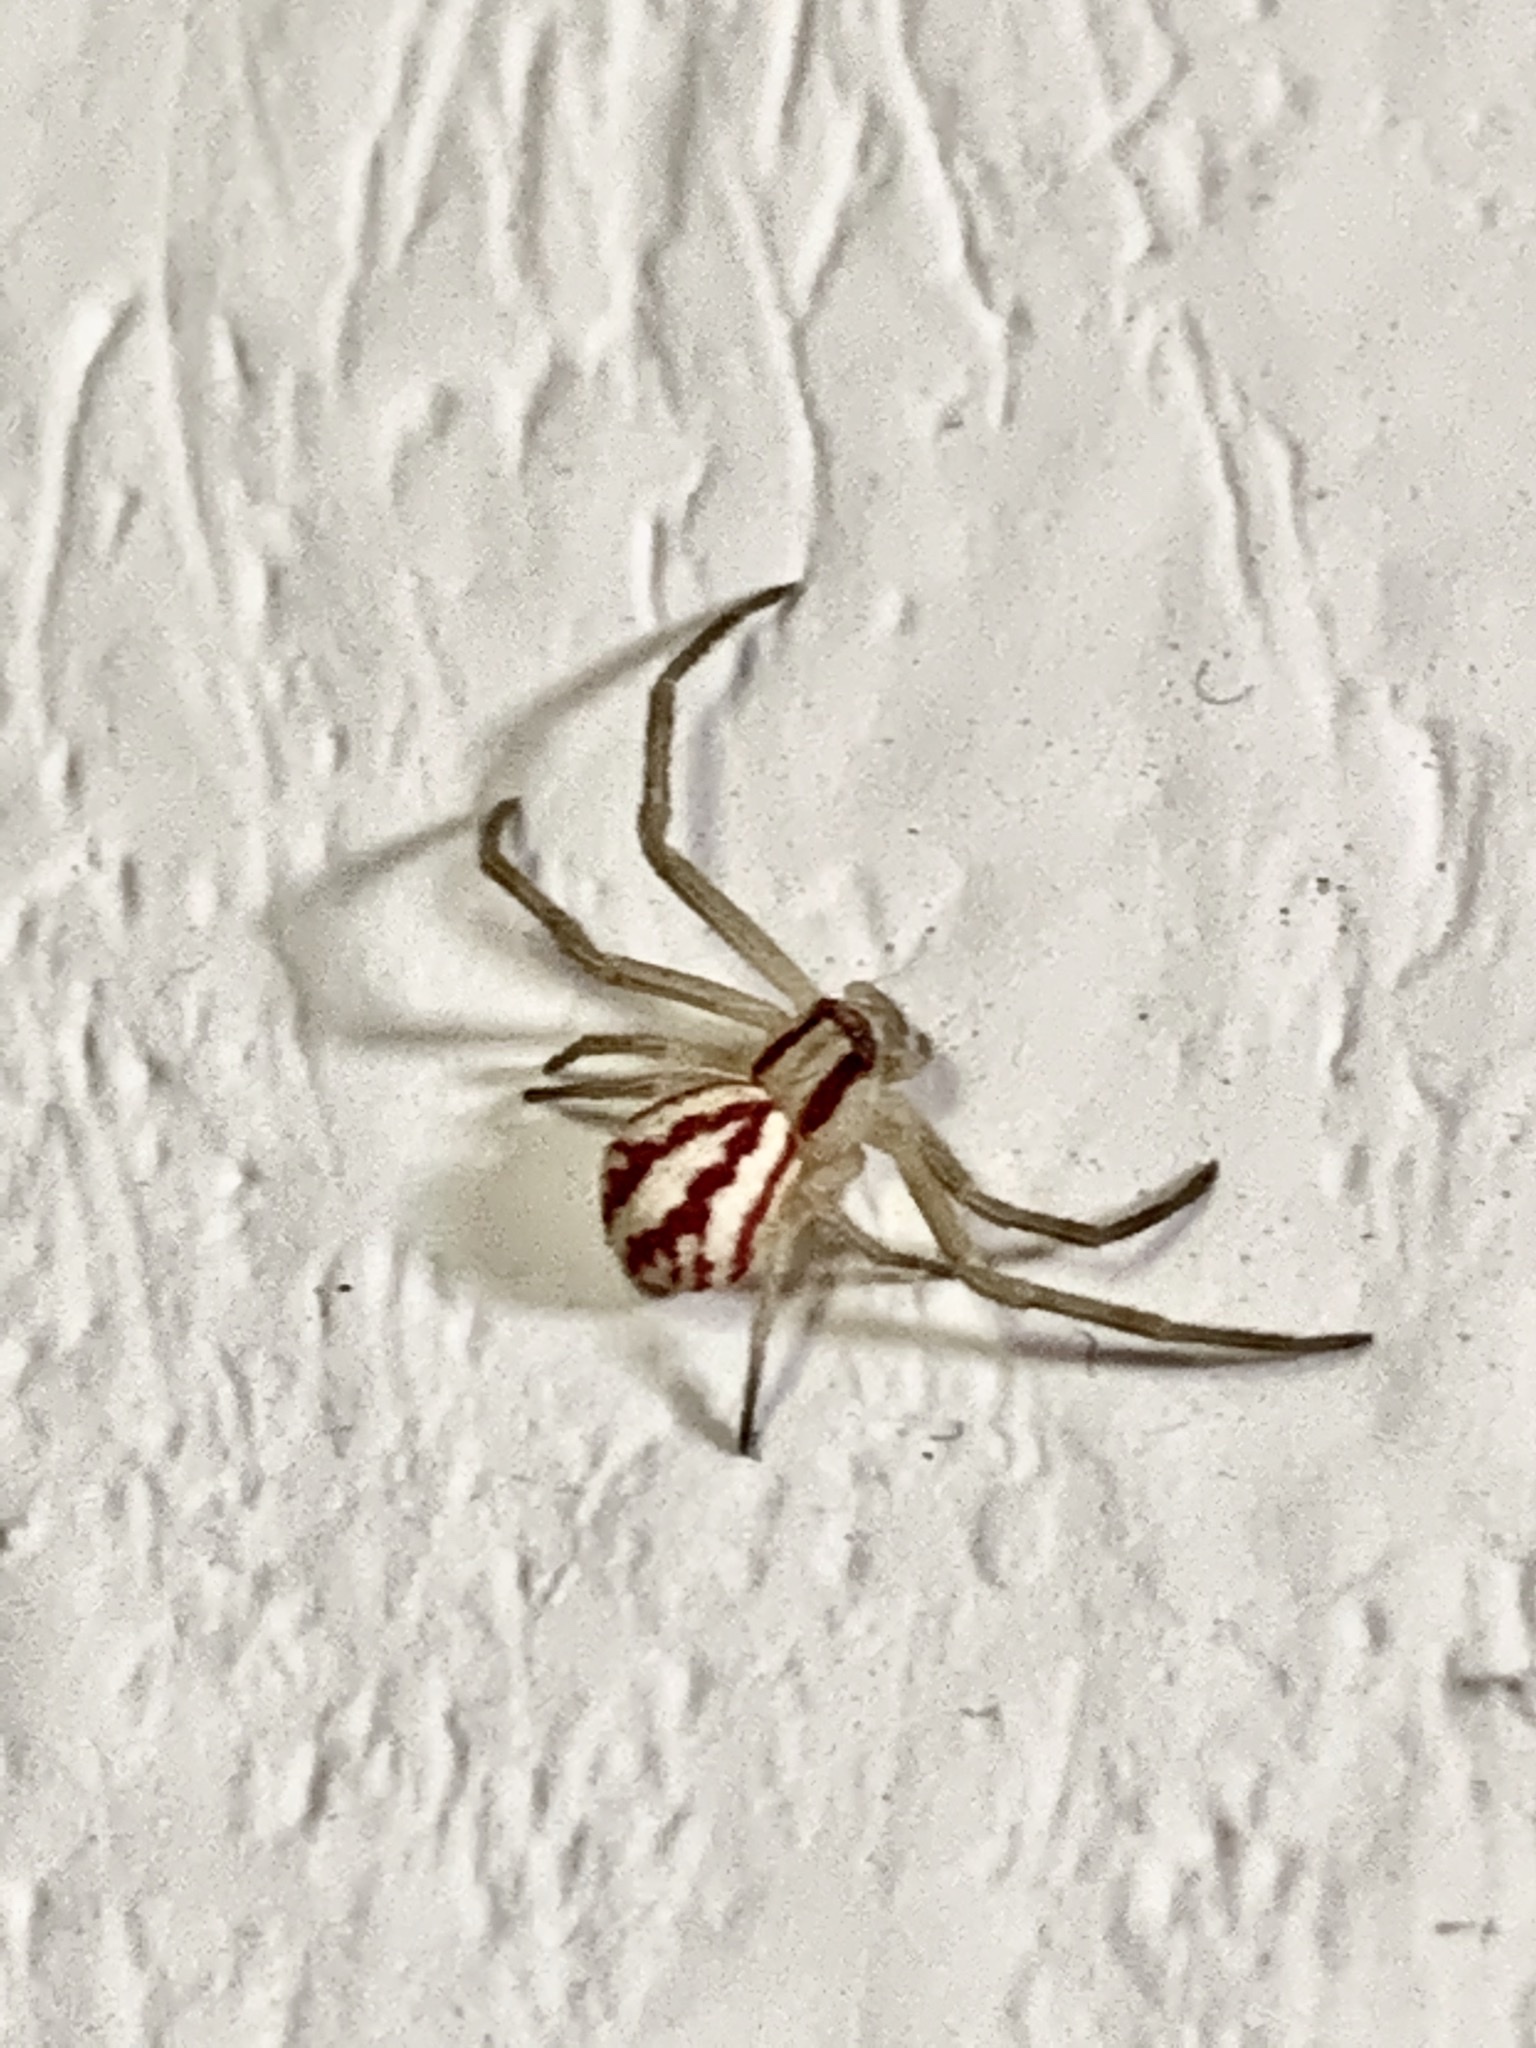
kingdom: Animalia
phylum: Arthropoda
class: Arachnida
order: Araneae
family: Thomisidae
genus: Mecaphesa
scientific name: Mecaphesa schlingeri
